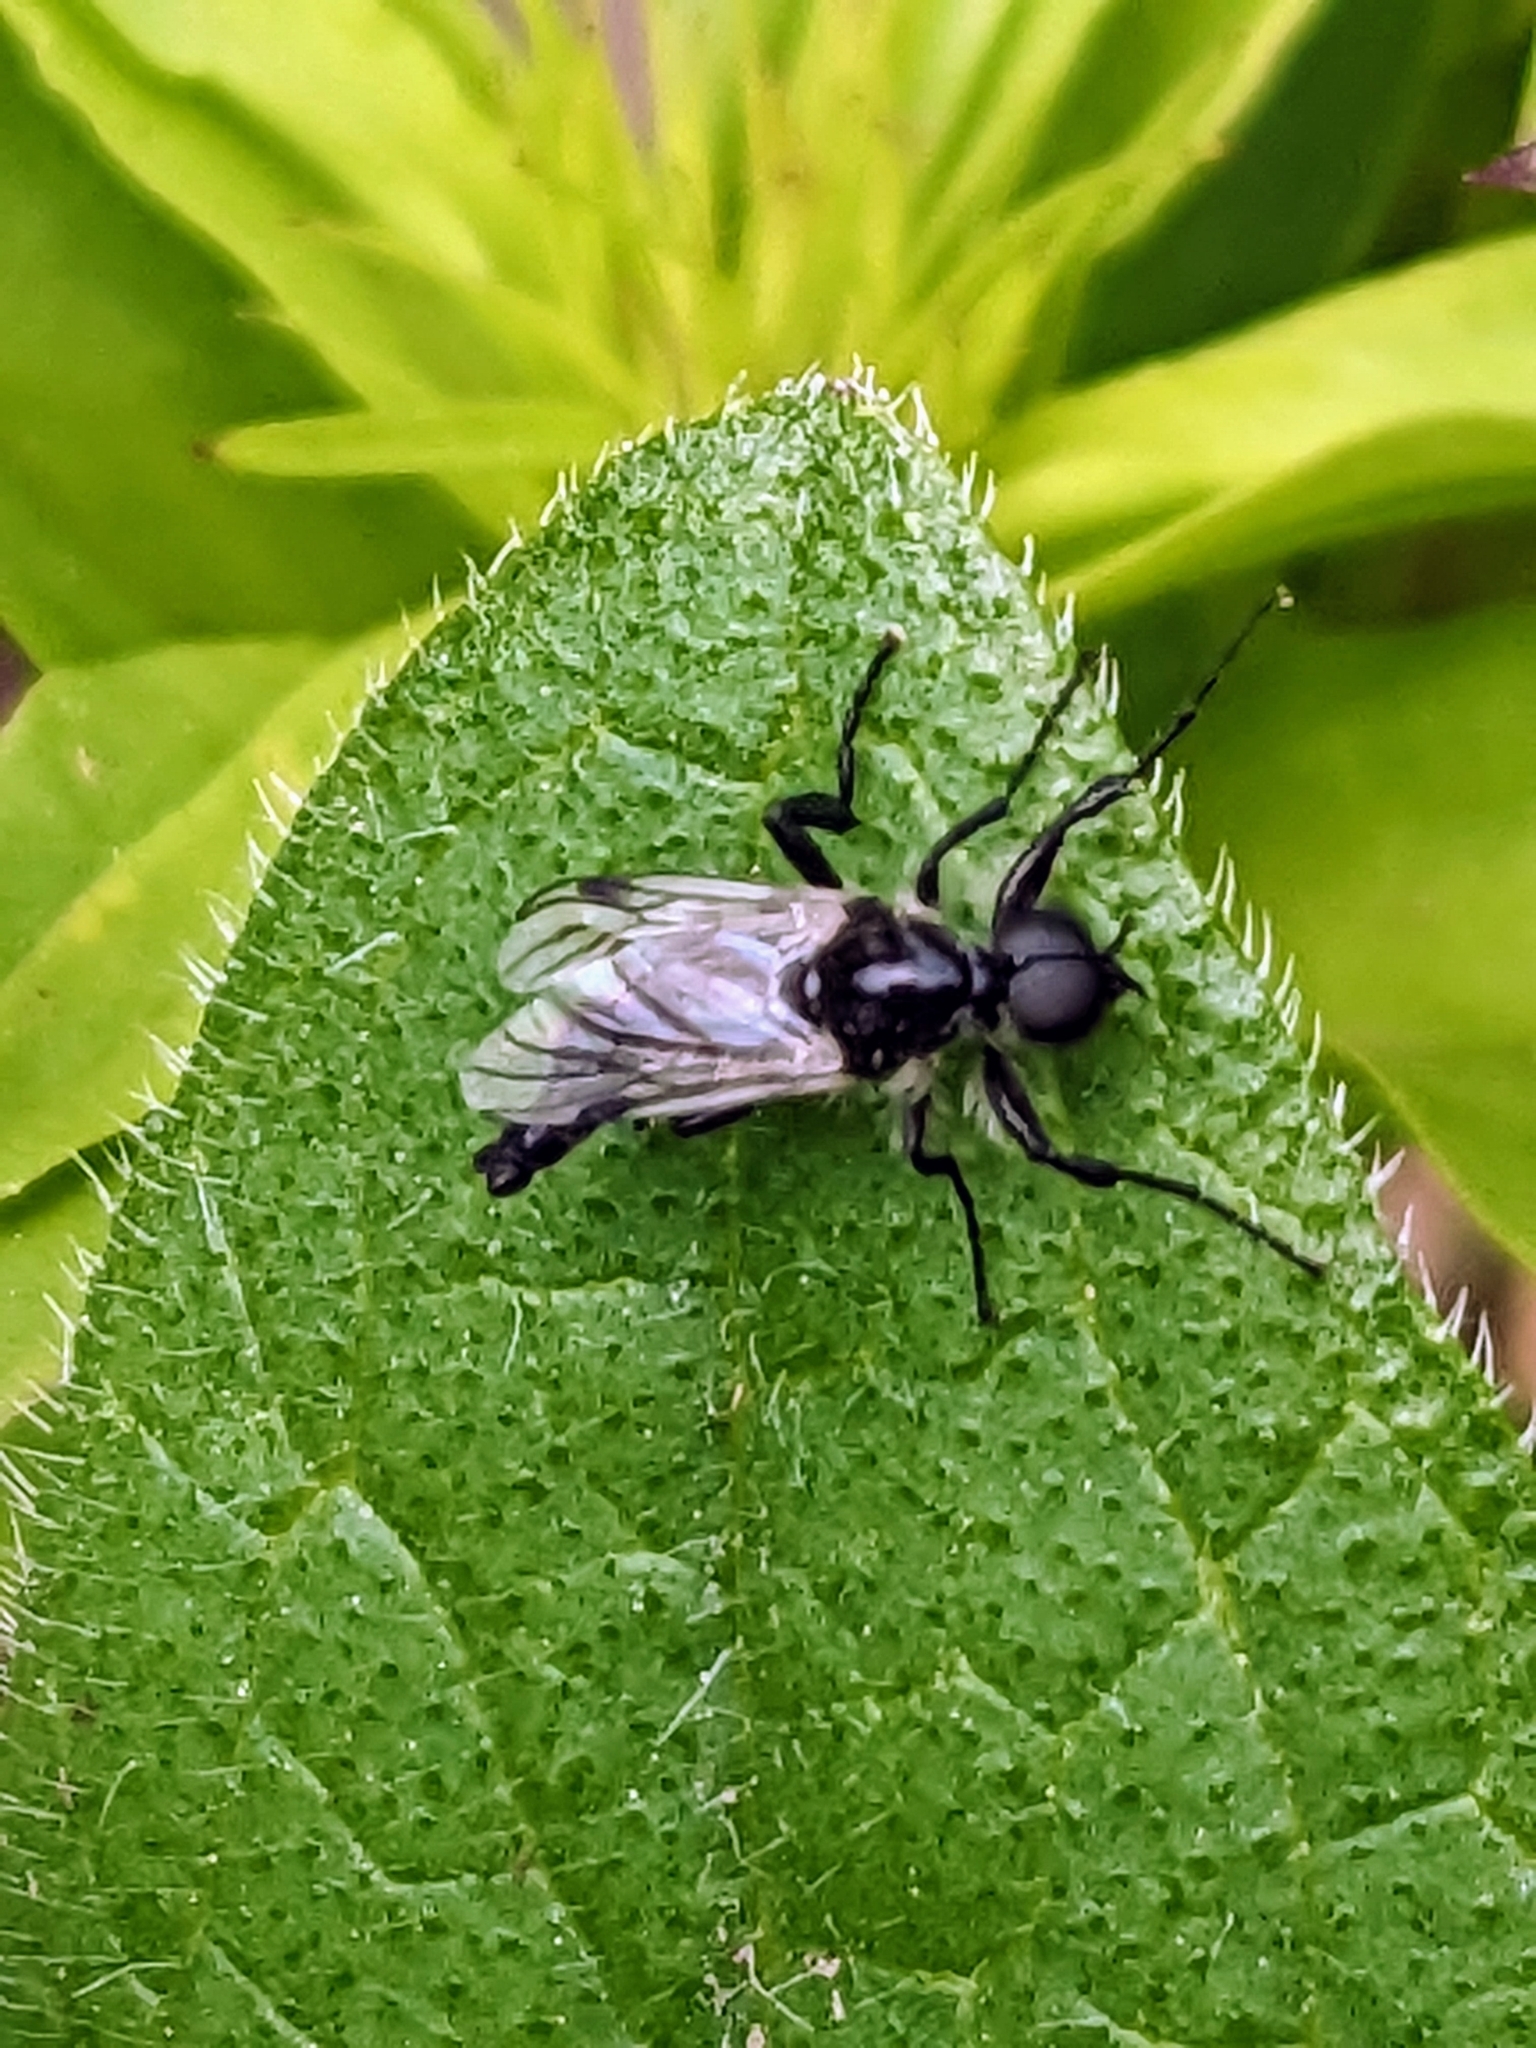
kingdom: Animalia
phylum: Arthropoda
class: Insecta
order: Diptera
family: Bibionidae
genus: Bibio
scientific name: Bibio albipennis
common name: White-winged march fly
